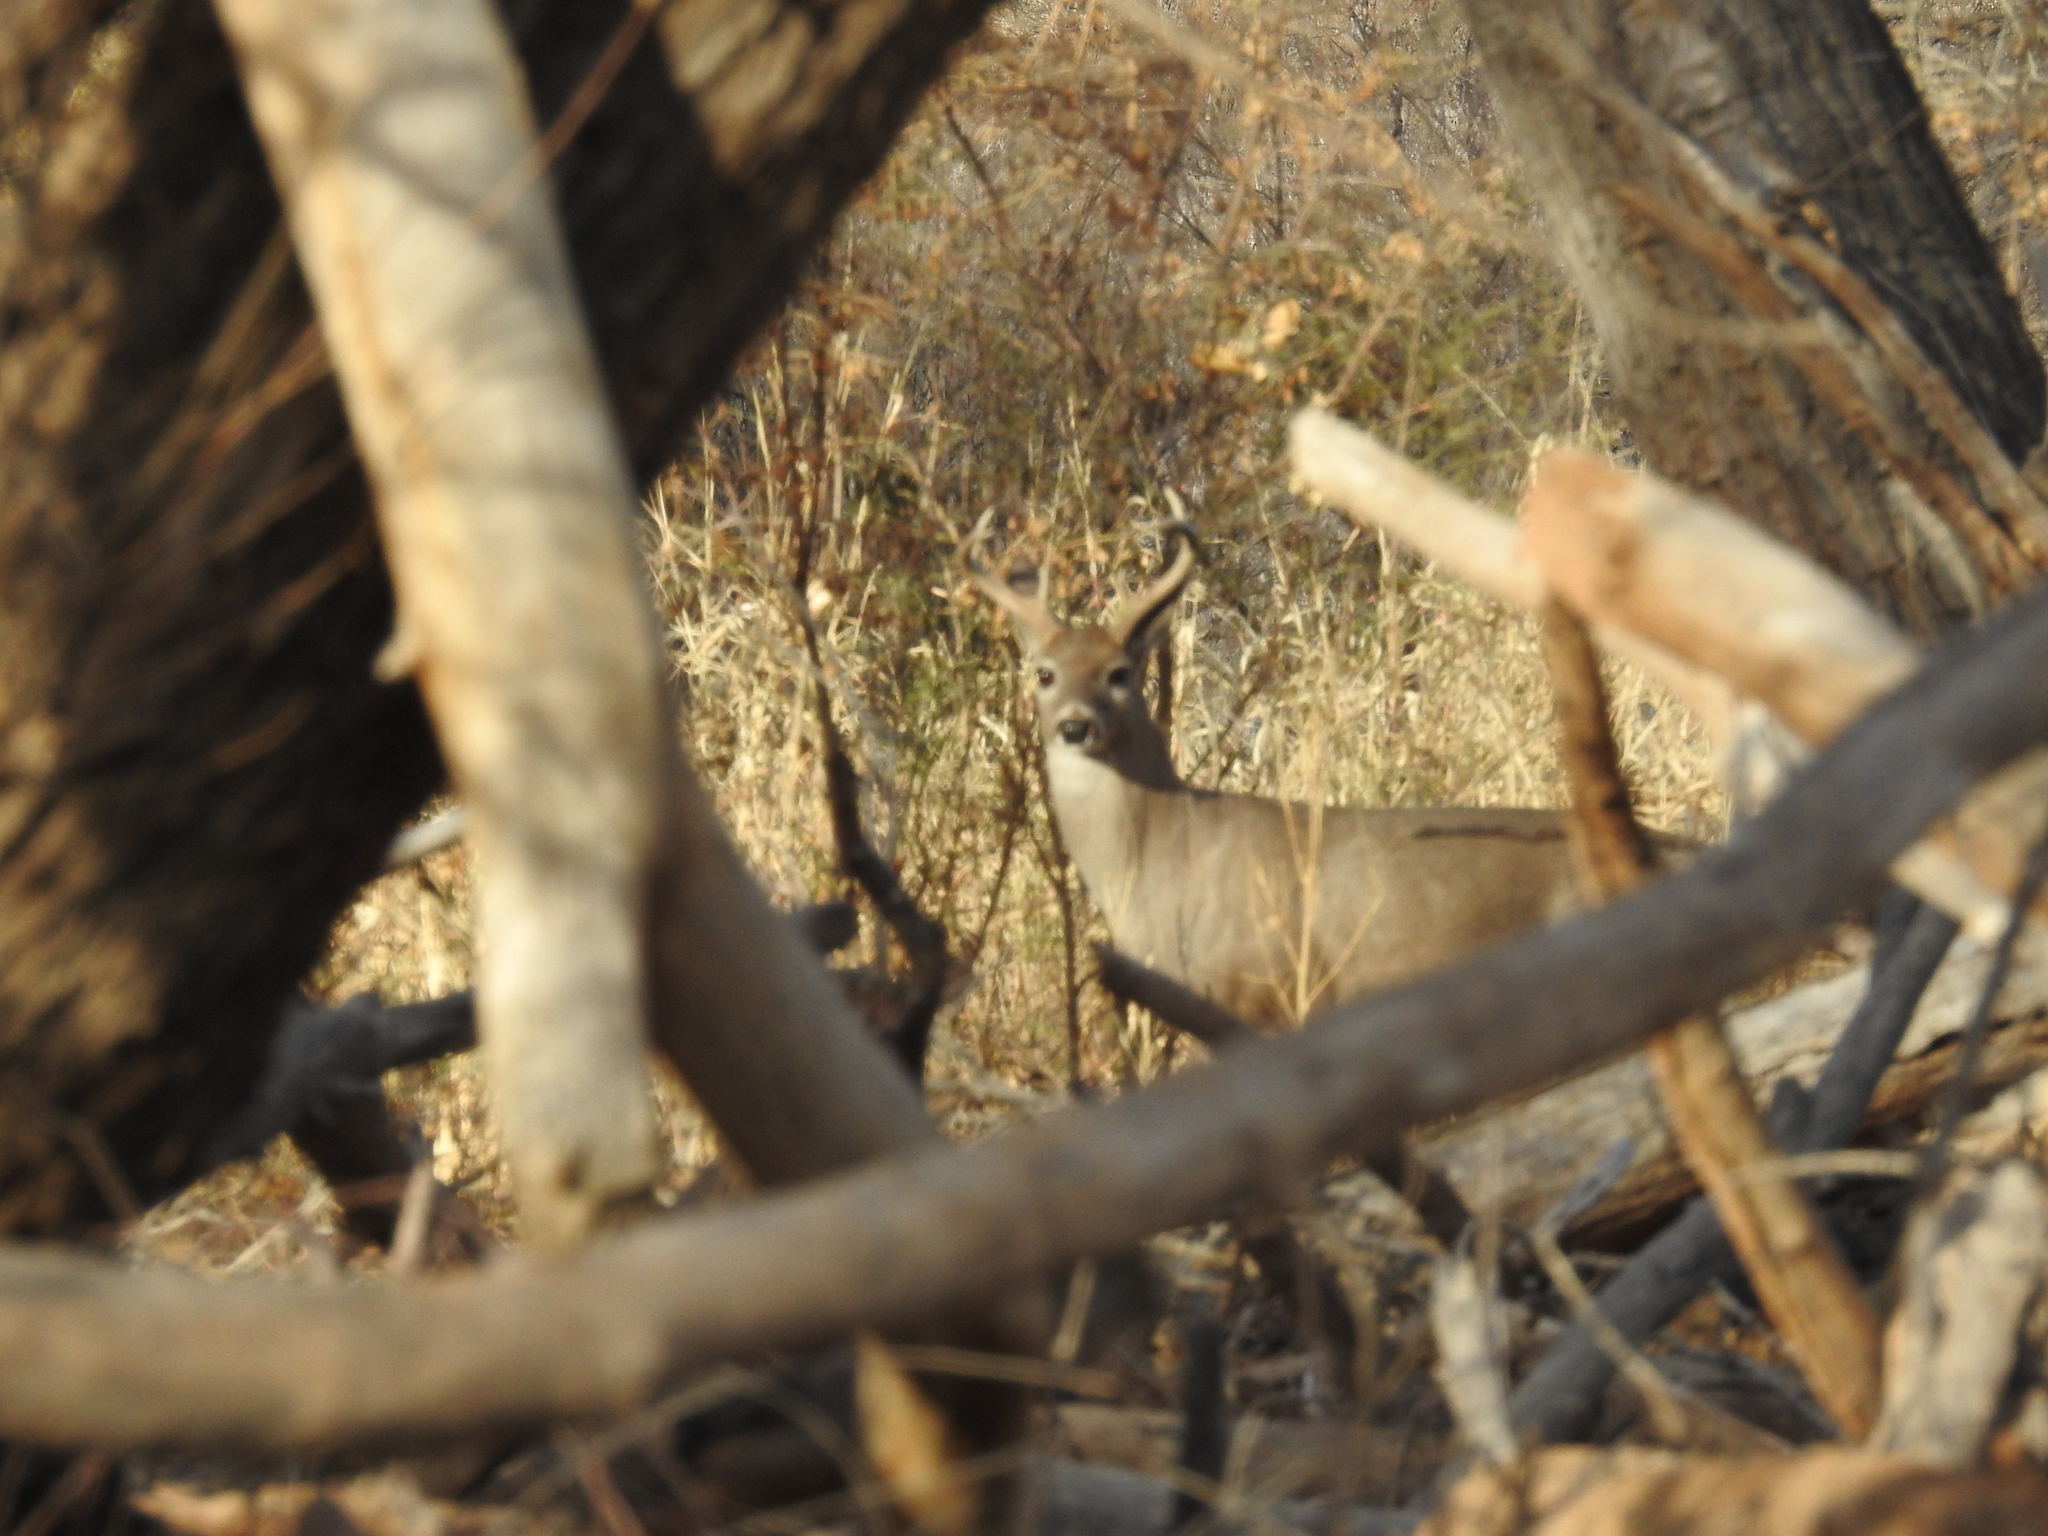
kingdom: Animalia
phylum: Chordata
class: Mammalia
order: Artiodactyla
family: Cervidae
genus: Odocoileus
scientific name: Odocoileus virginianus
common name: White-tailed deer
